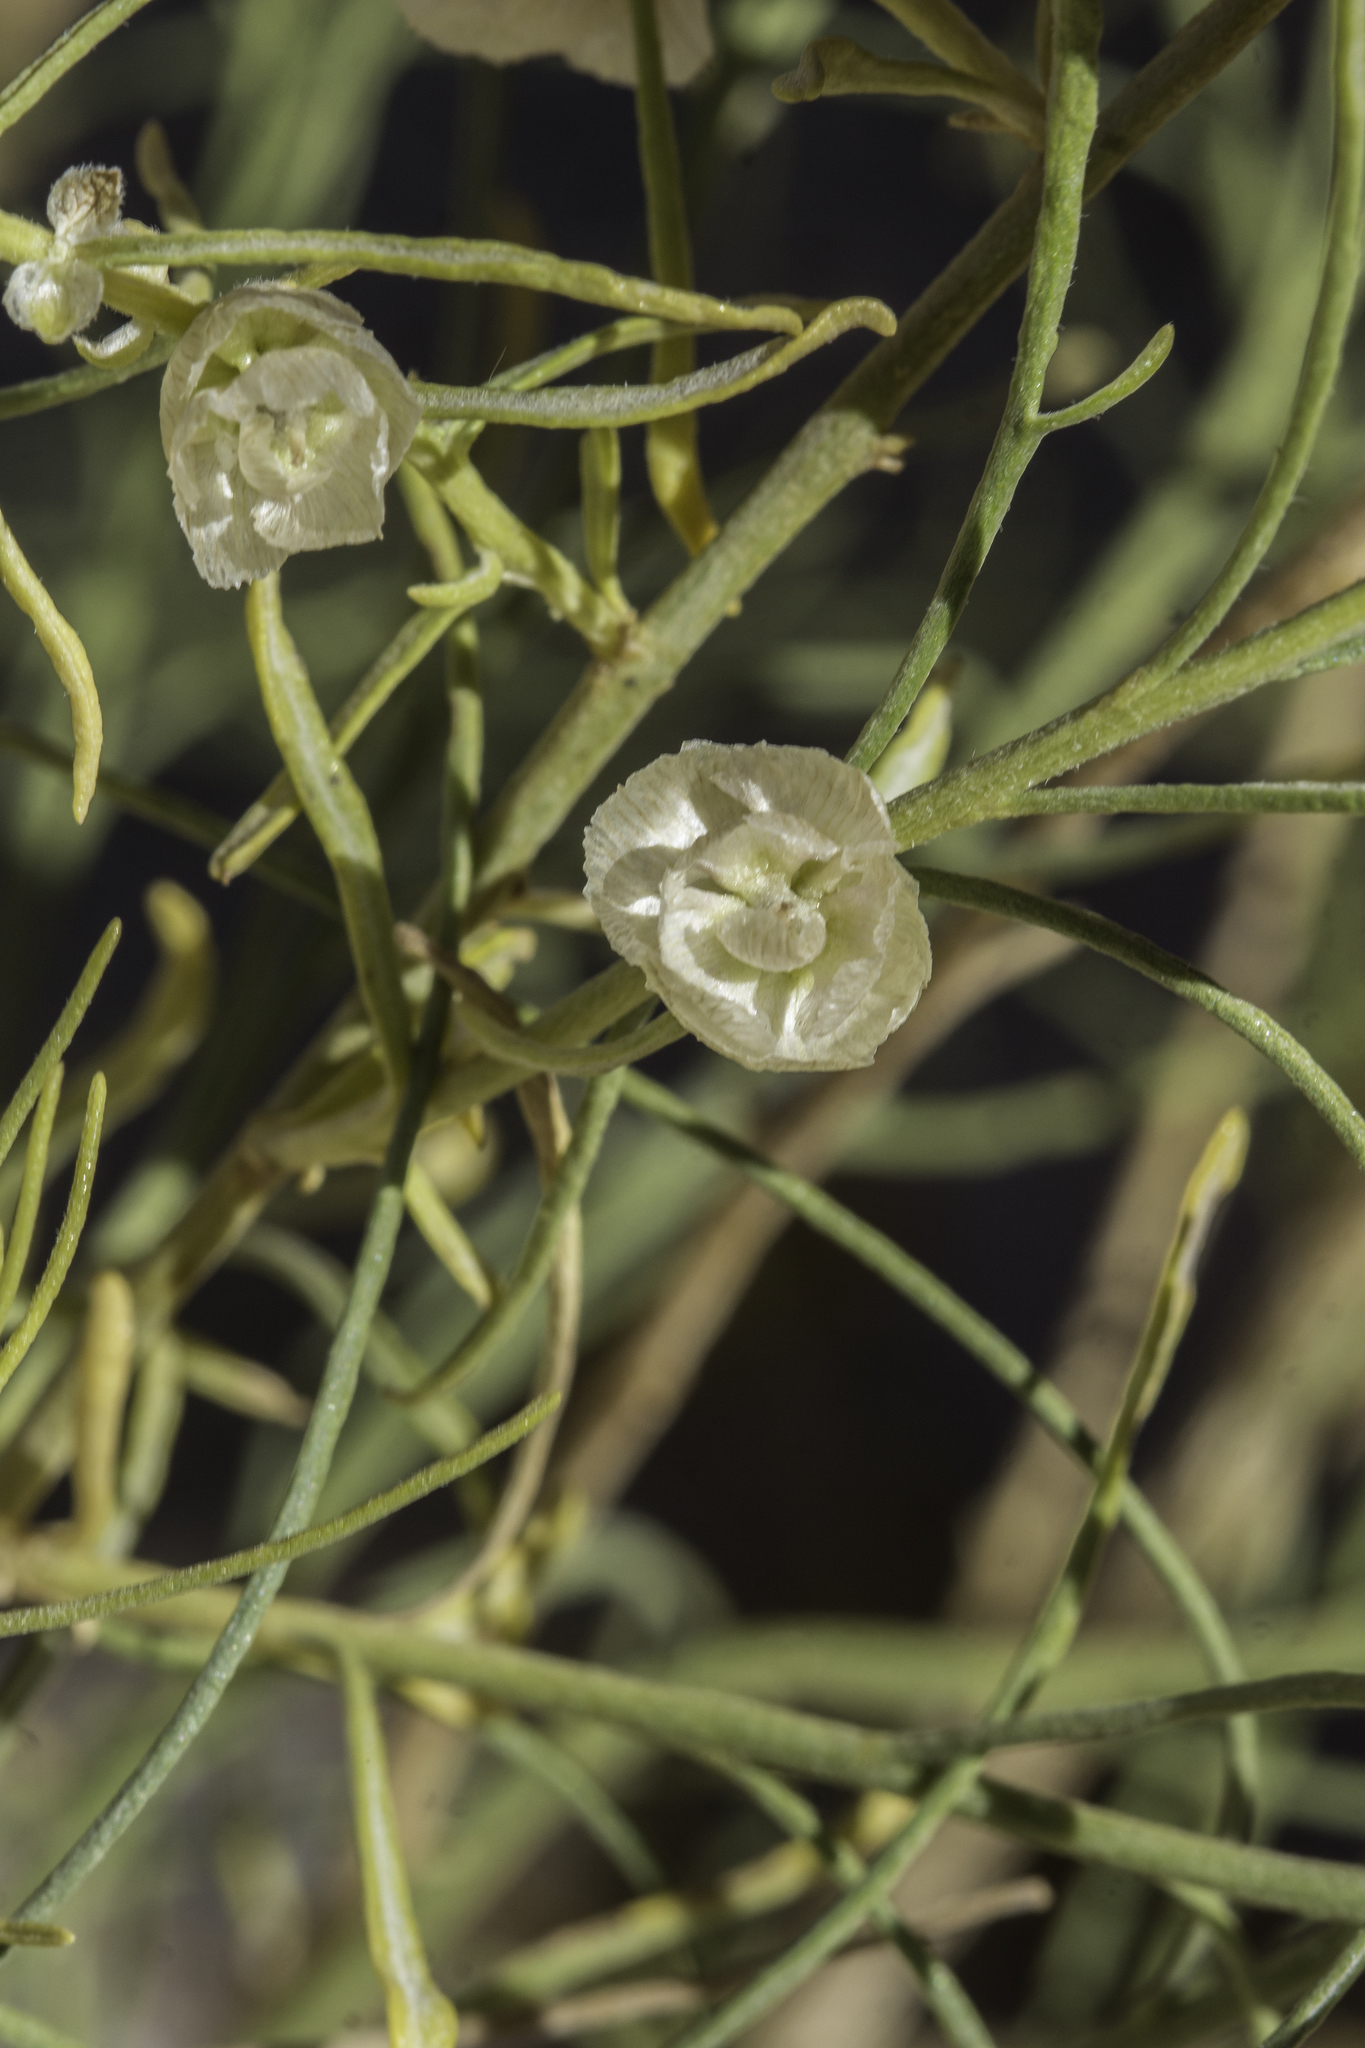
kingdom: Plantae
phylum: Tracheophyta
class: Magnoliopsida
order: Asterales
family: Asteraceae
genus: Ambrosia
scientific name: Ambrosia salsola
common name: Burrobrush
